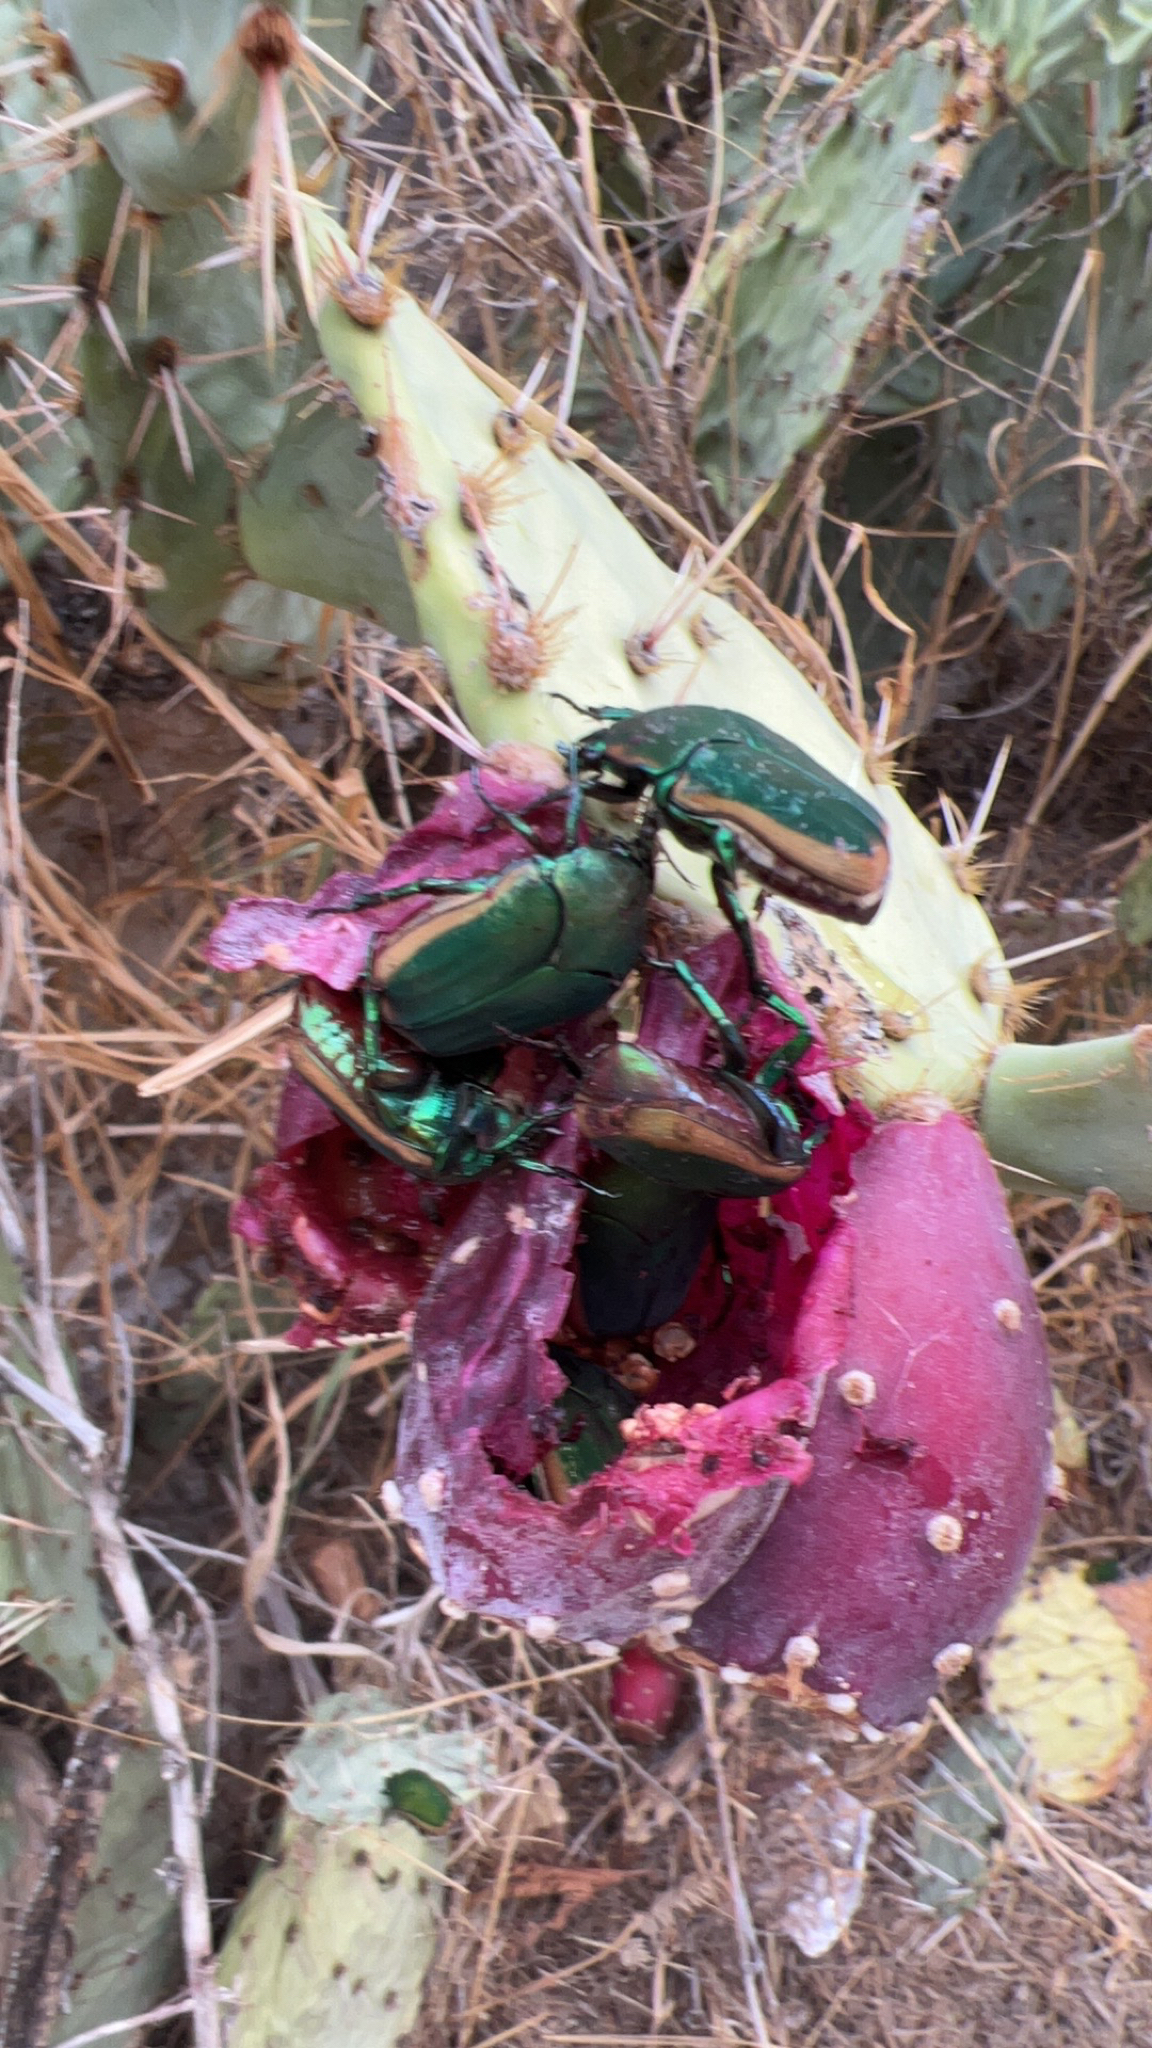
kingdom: Animalia
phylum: Arthropoda
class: Insecta
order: Coleoptera
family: Scarabaeidae
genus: Cotinis
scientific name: Cotinis mutabilis
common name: Figeater beetle
